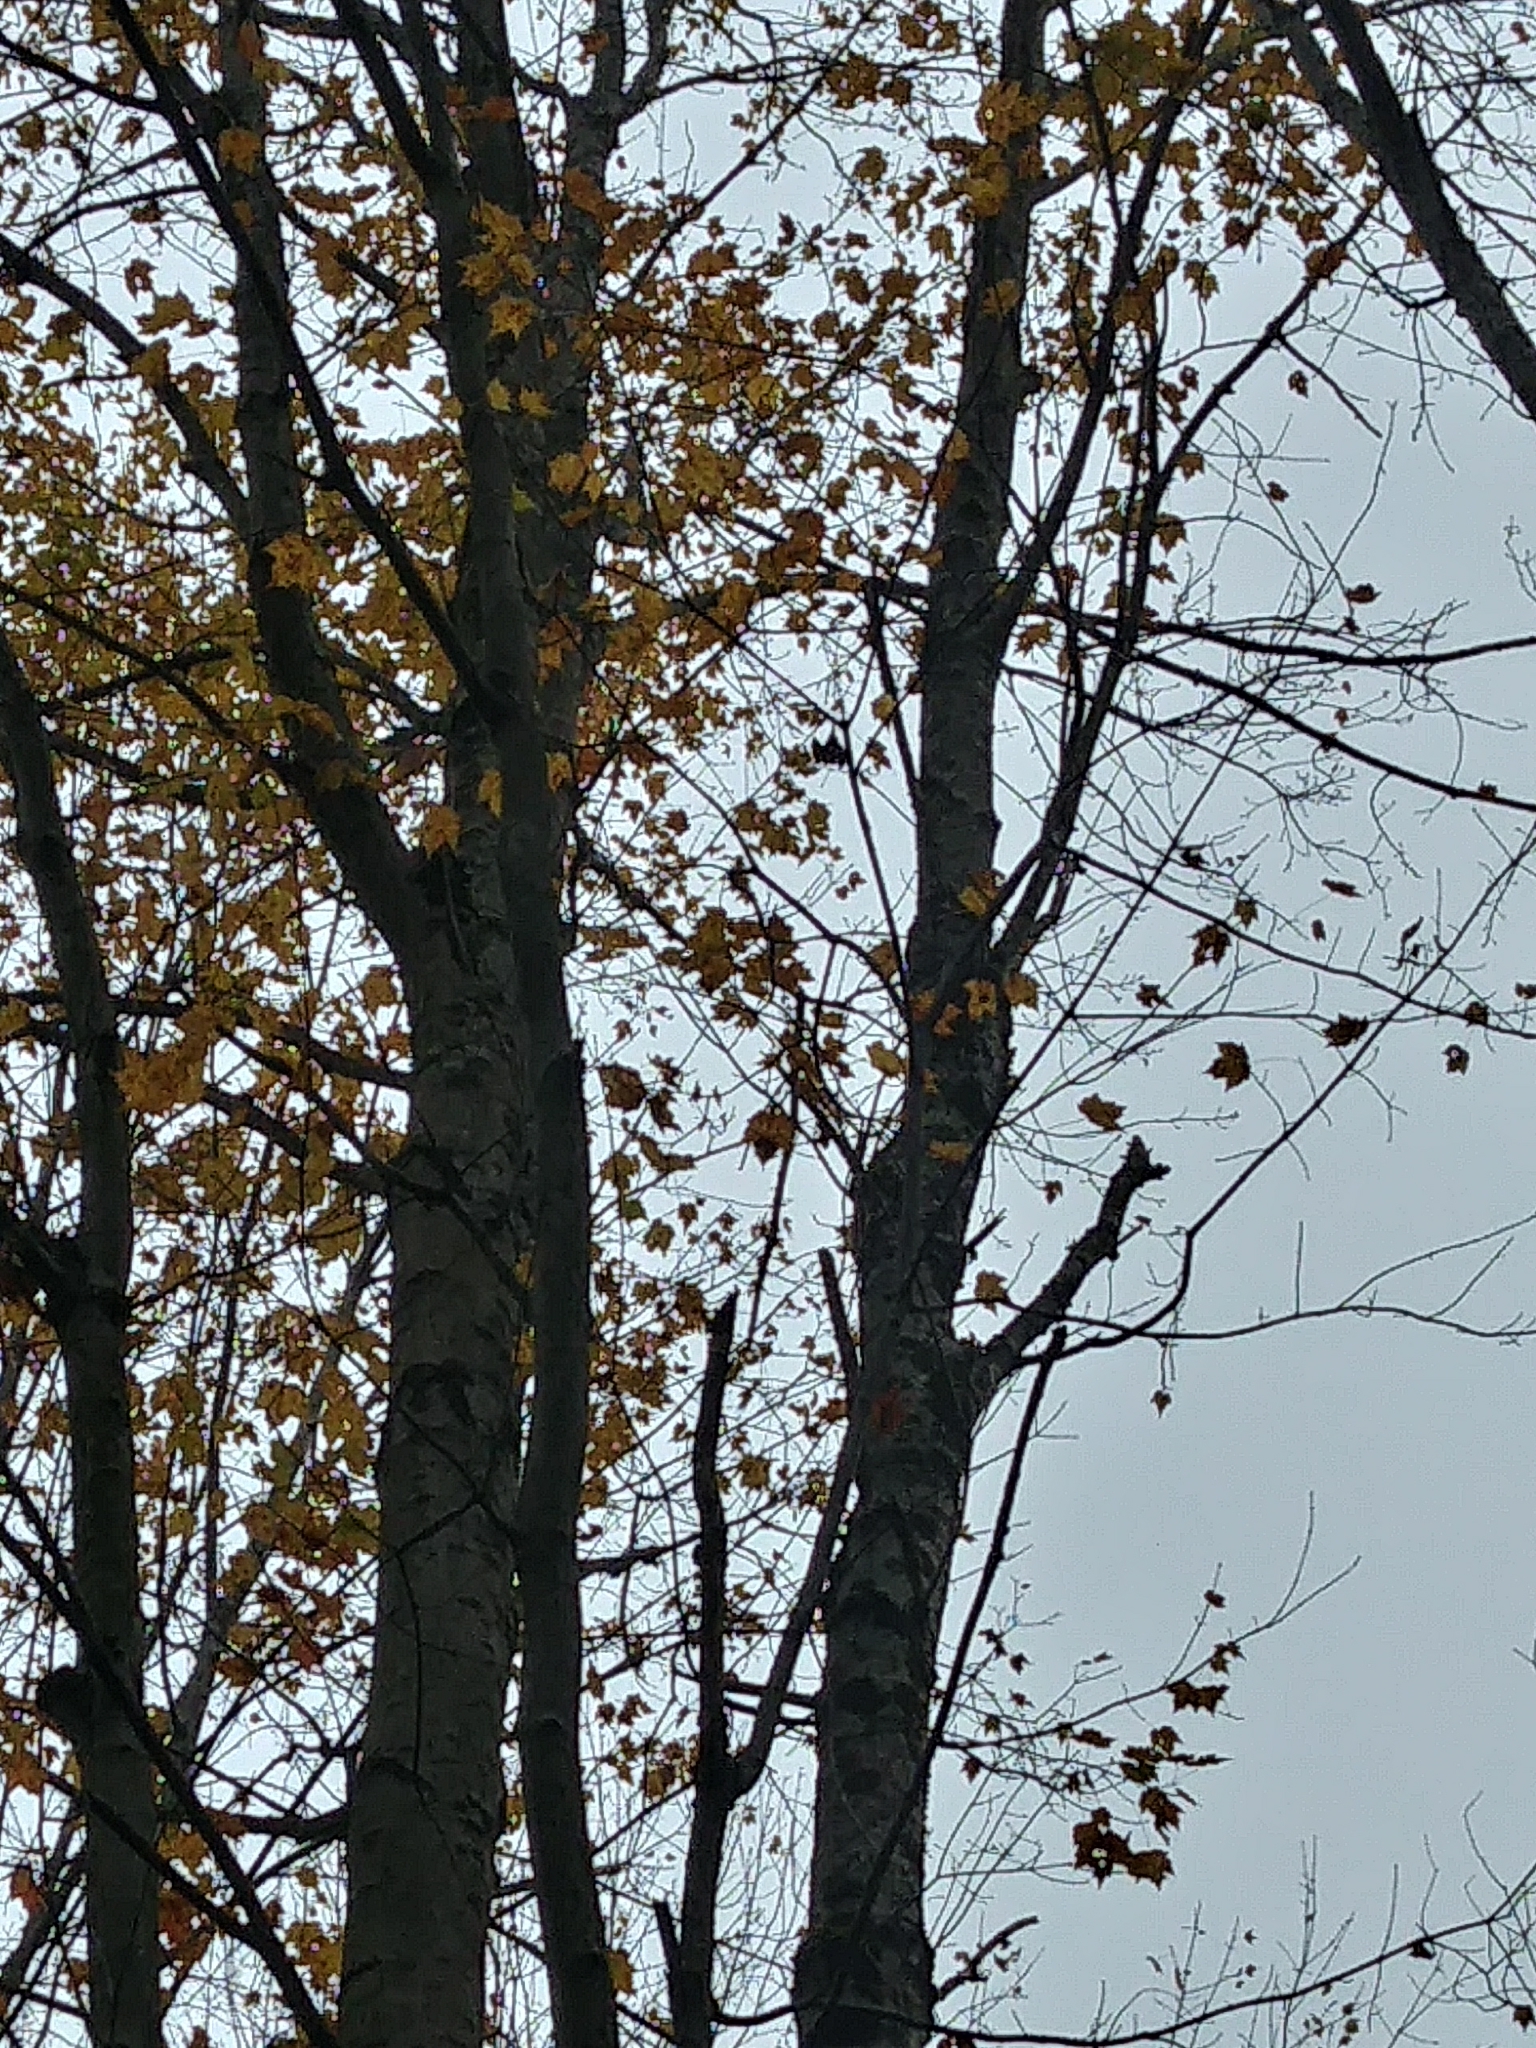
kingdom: Plantae
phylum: Tracheophyta
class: Magnoliopsida
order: Sapindales
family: Sapindaceae
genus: Acer
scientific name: Acer saccharum
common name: Sugar maple
